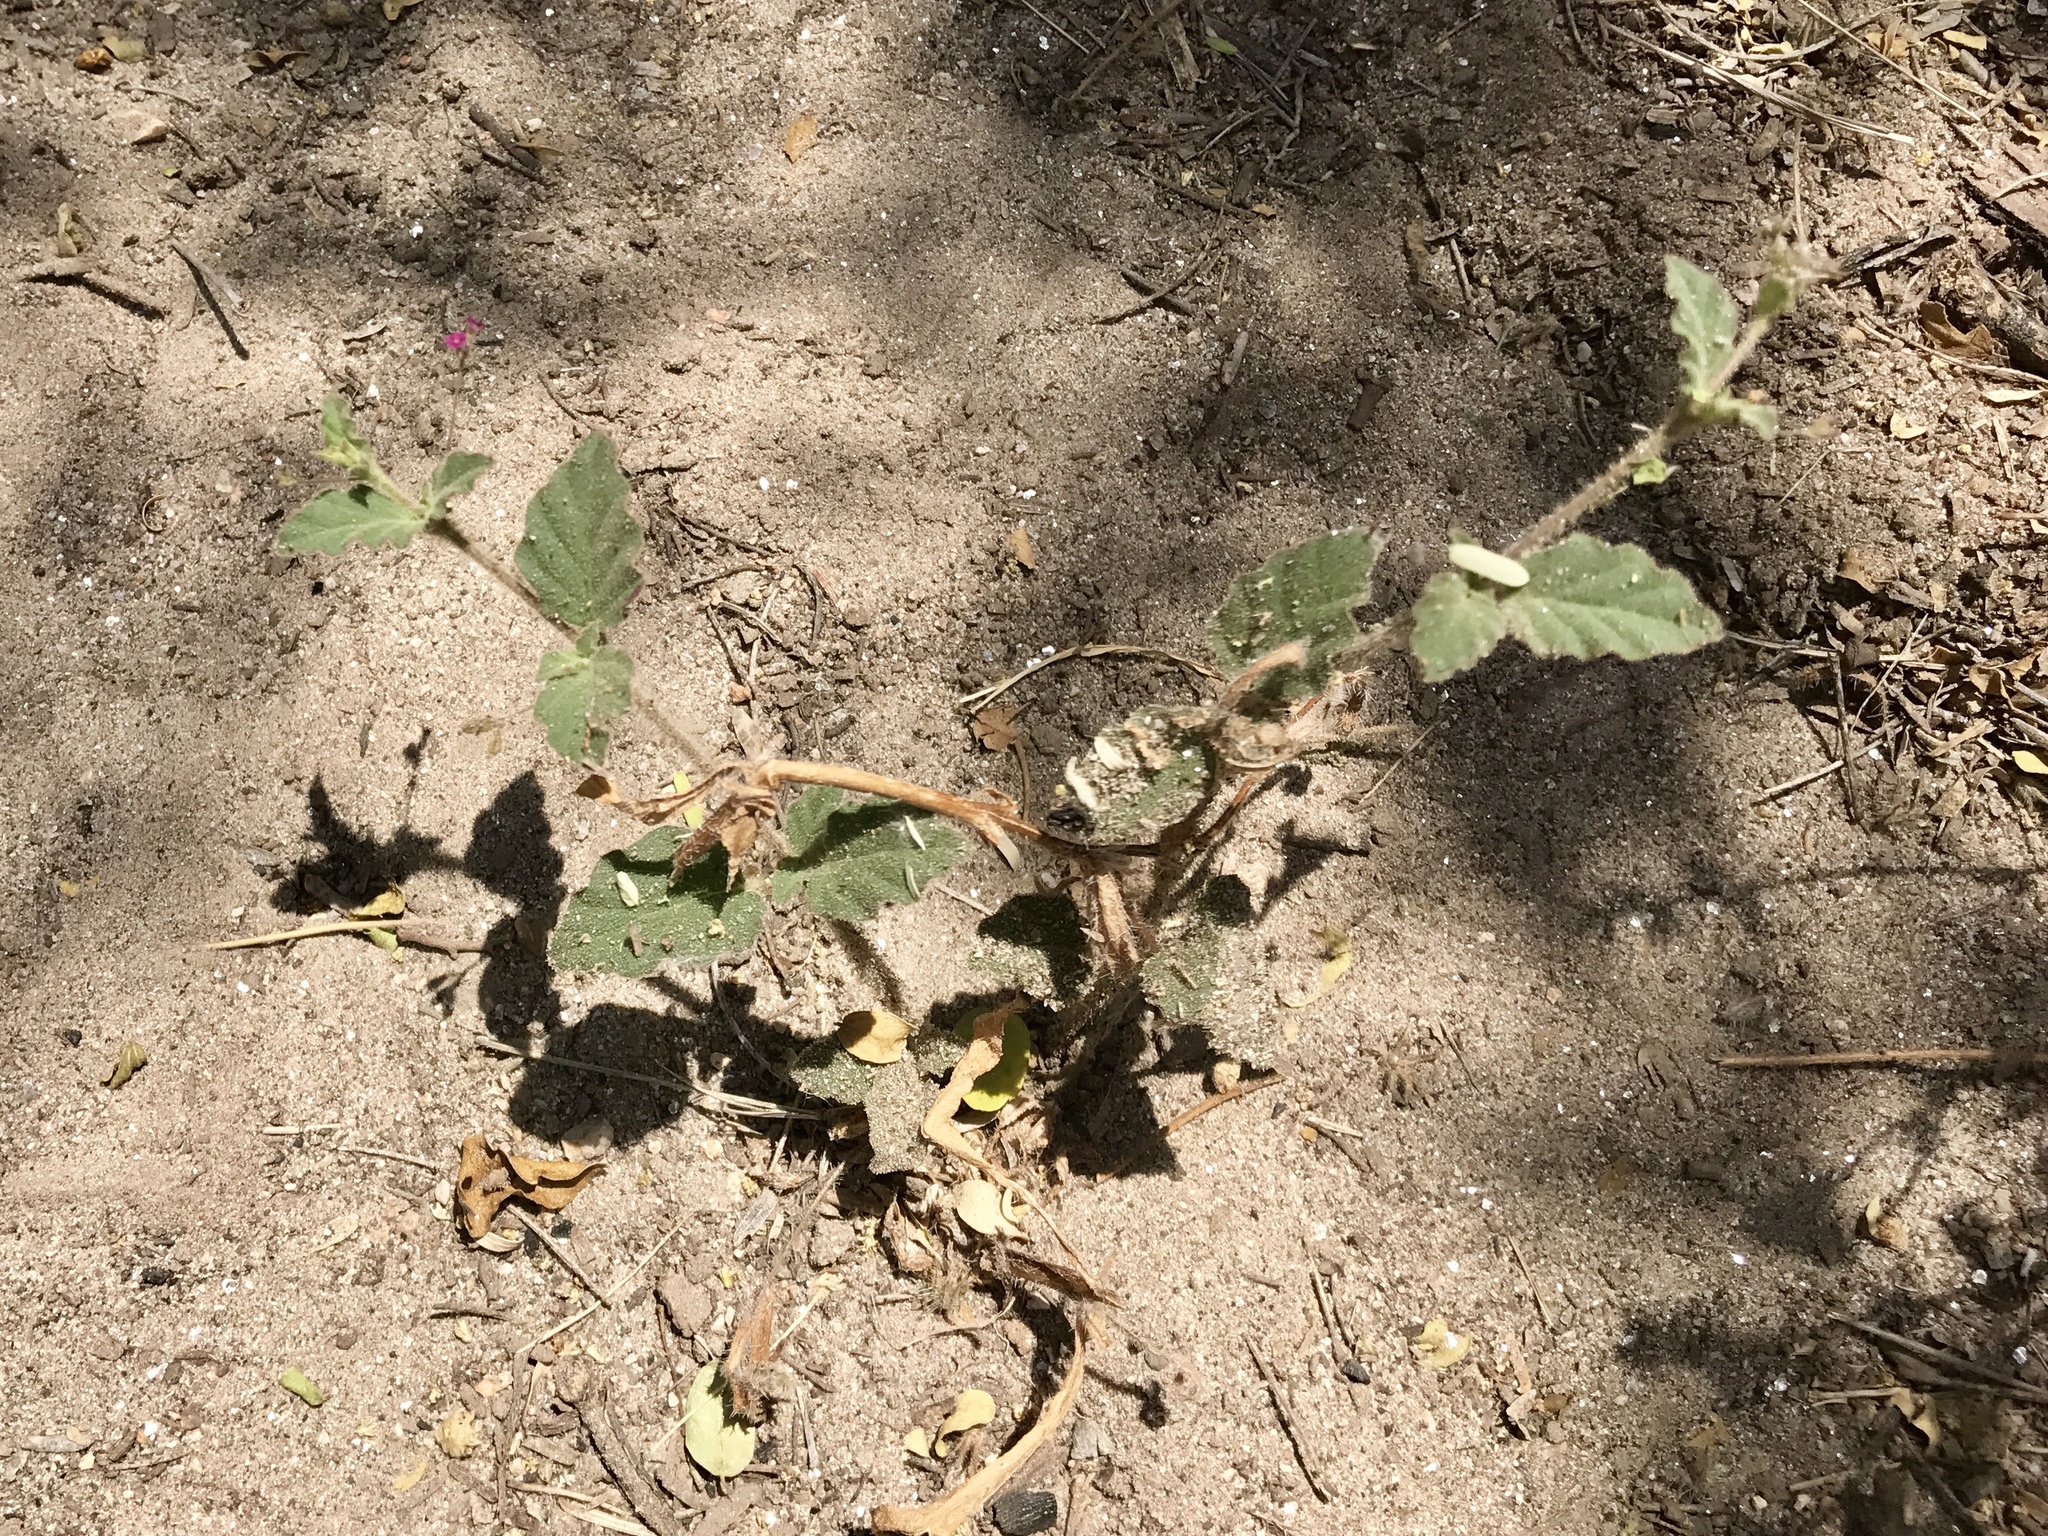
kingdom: Plantae
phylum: Tracheophyta
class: Magnoliopsida
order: Caryophyllales
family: Nyctaginaceae
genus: Boerhavia
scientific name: Boerhavia coccinea
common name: Scarlet spiderling
